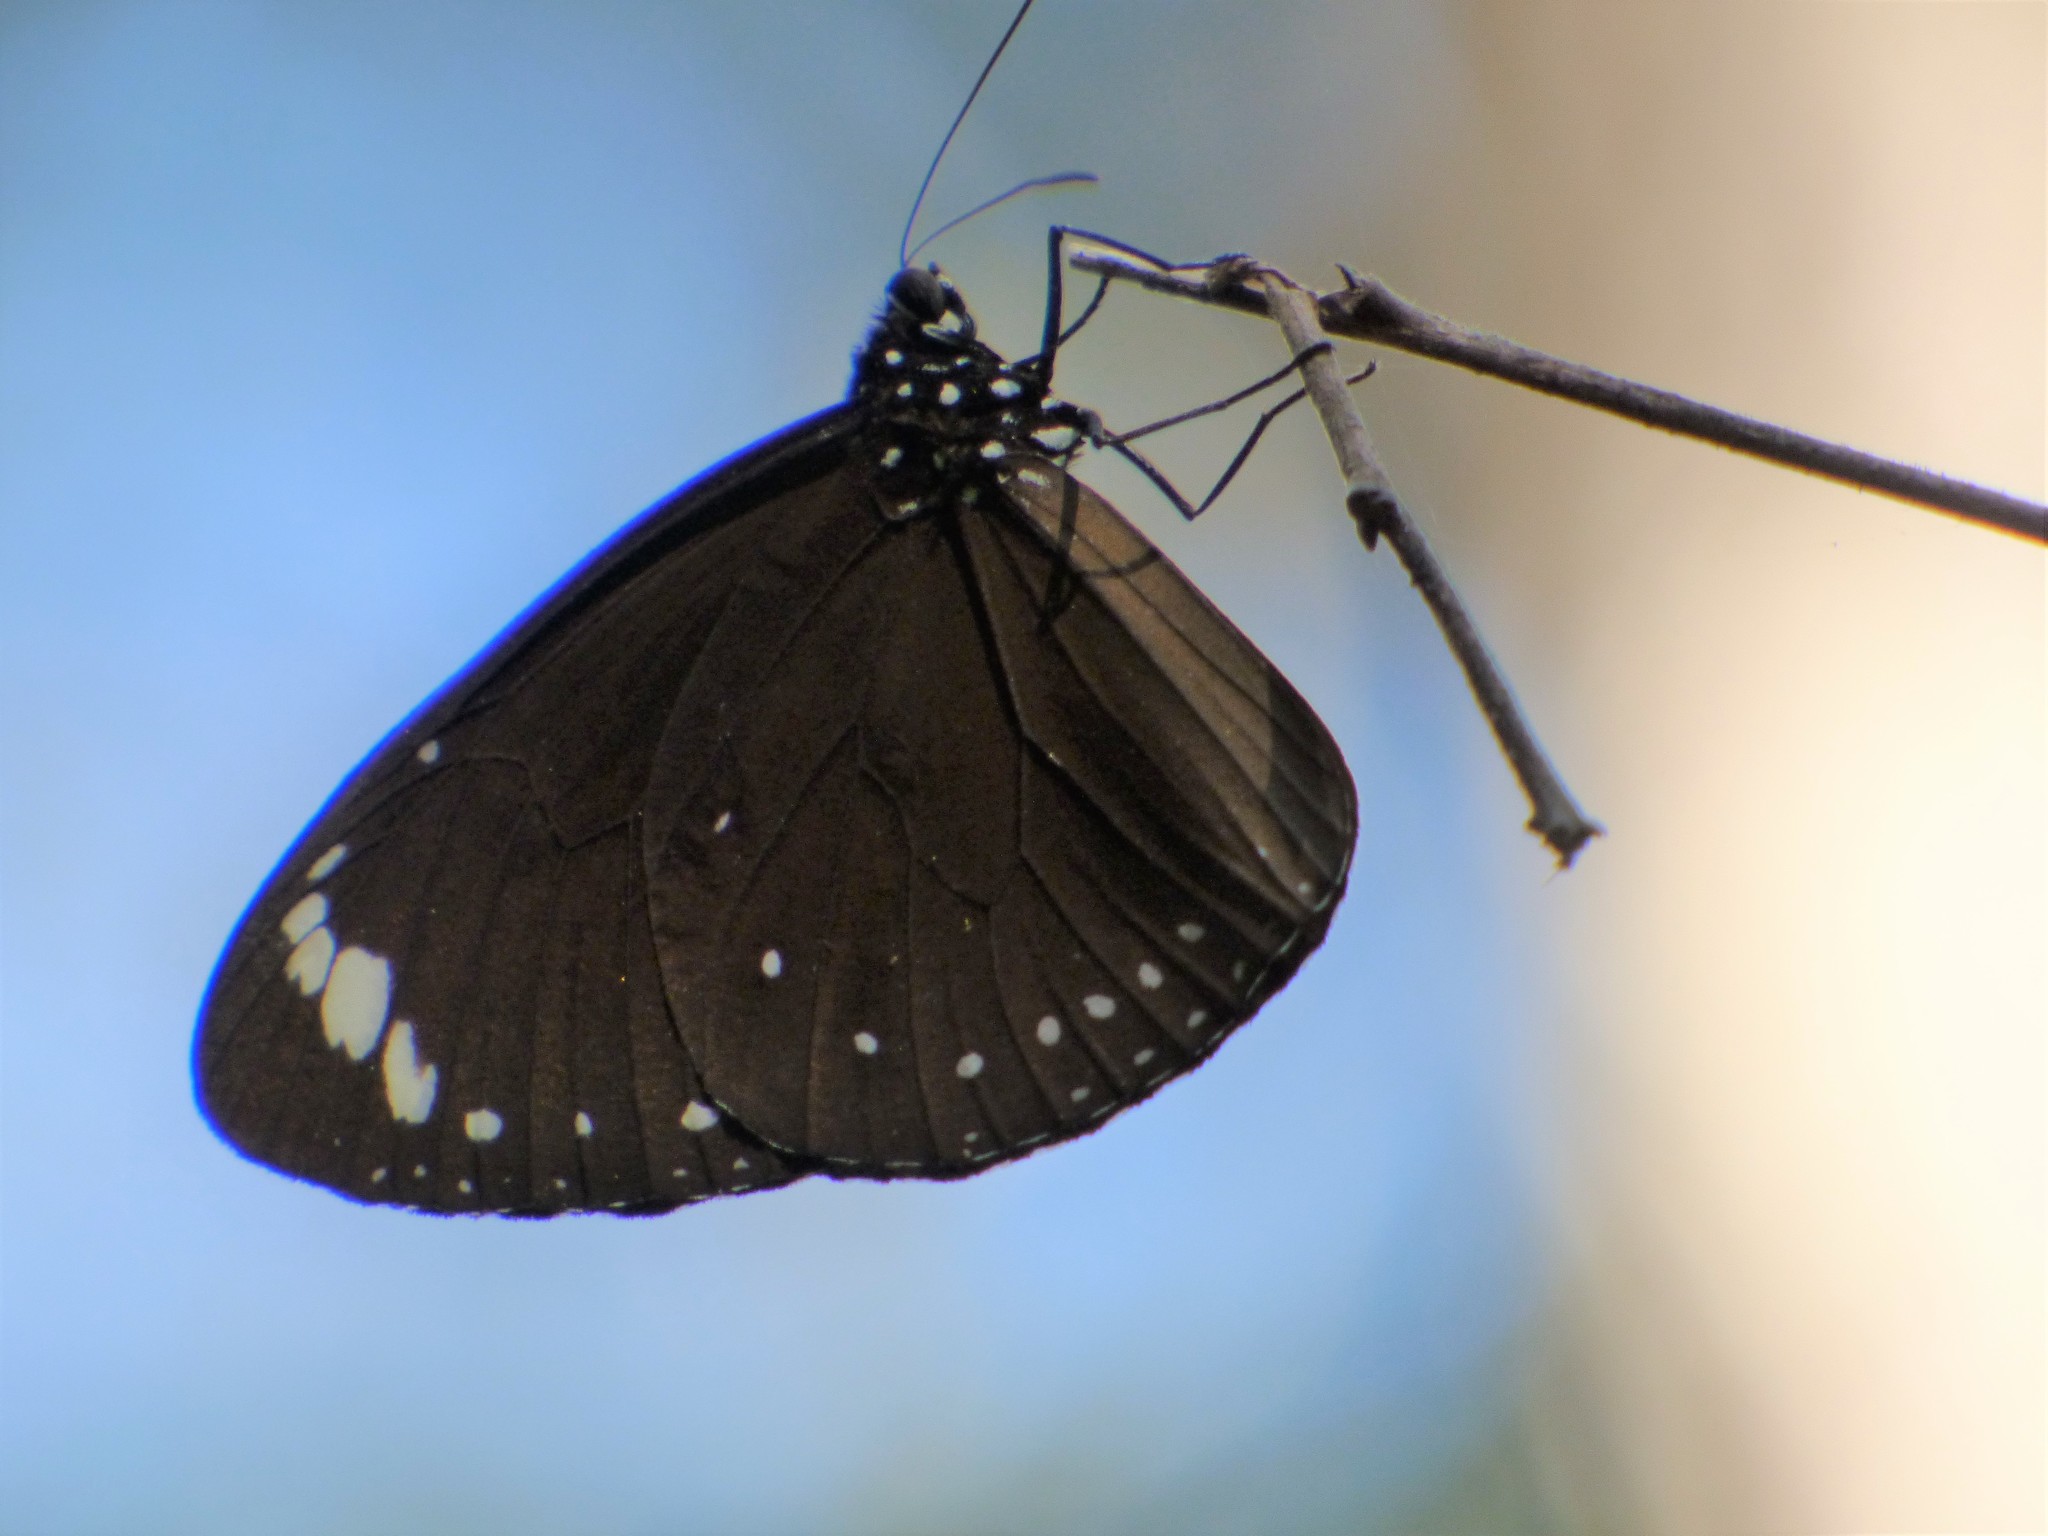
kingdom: Animalia
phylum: Arthropoda
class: Insecta
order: Lepidoptera
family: Nymphalidae
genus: Euploea
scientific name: Euploea tulliolus
